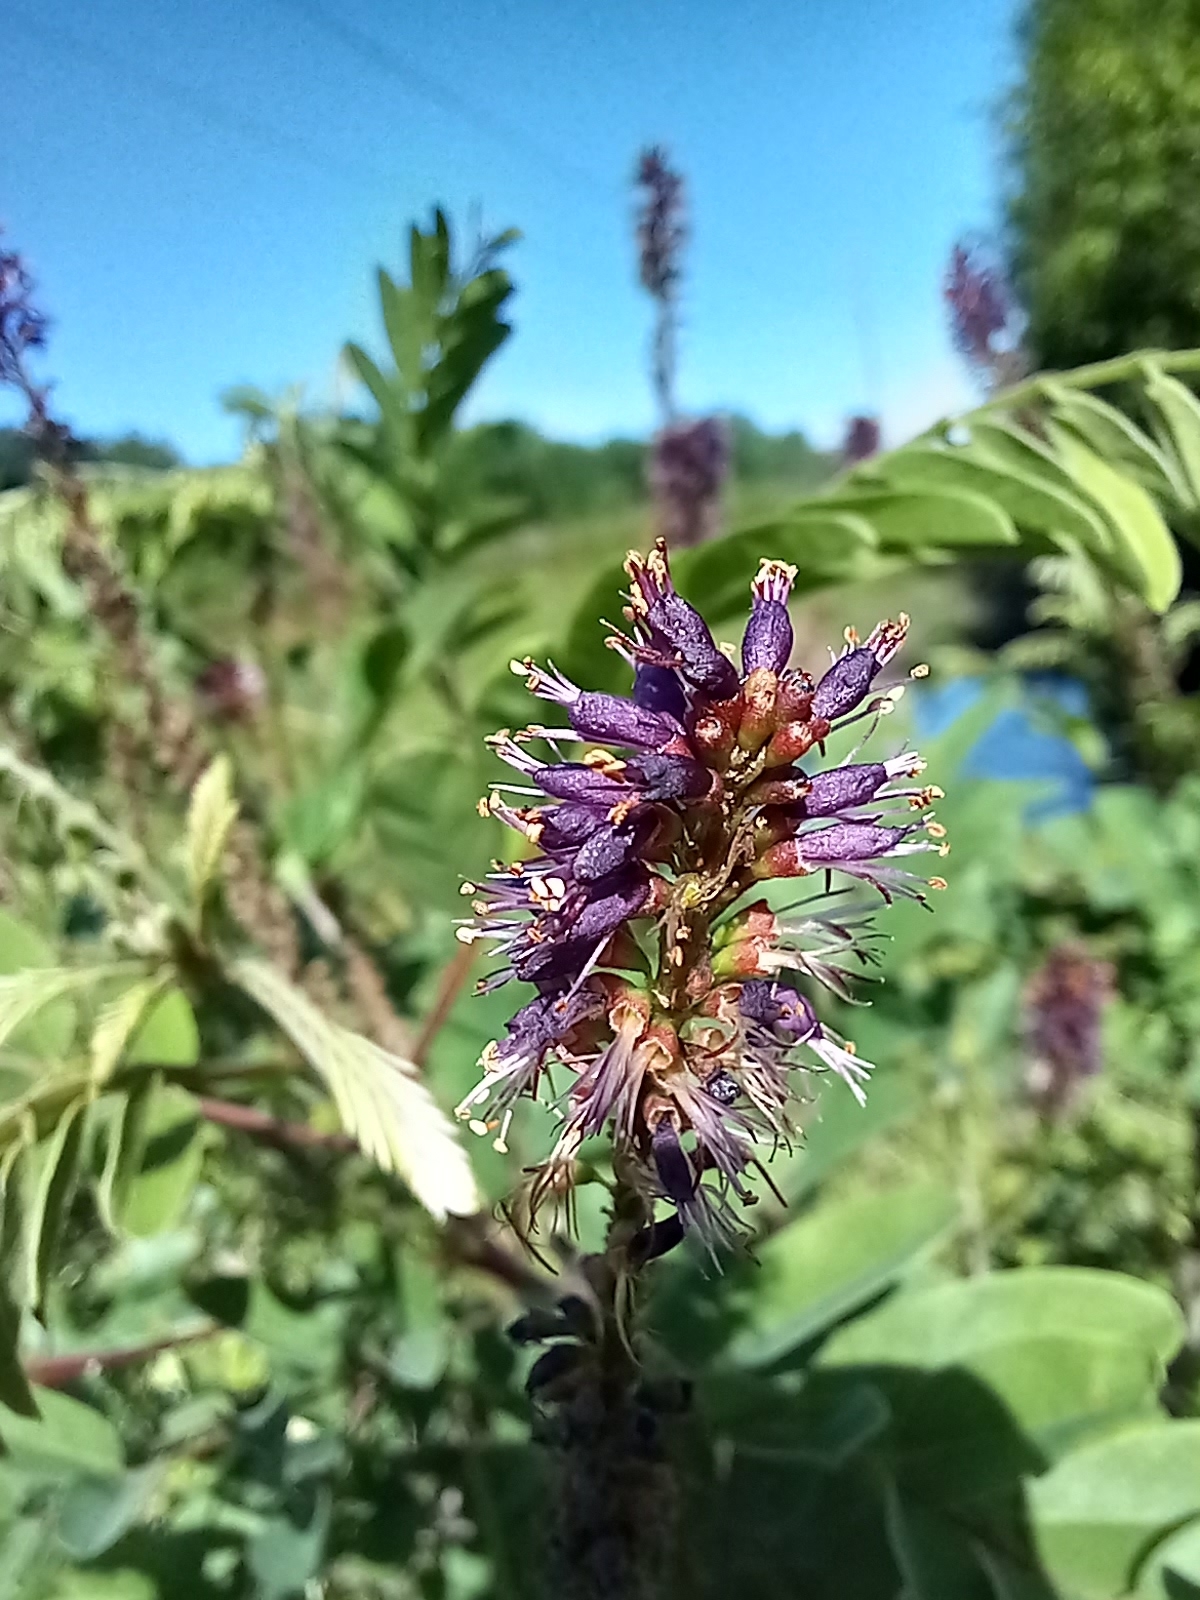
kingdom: Plantae
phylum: Tracheophyta
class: Magnoliopsida
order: Fabales
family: Fabaceae
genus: Amorpha
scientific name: Amorpha fruticosa
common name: False indigo
